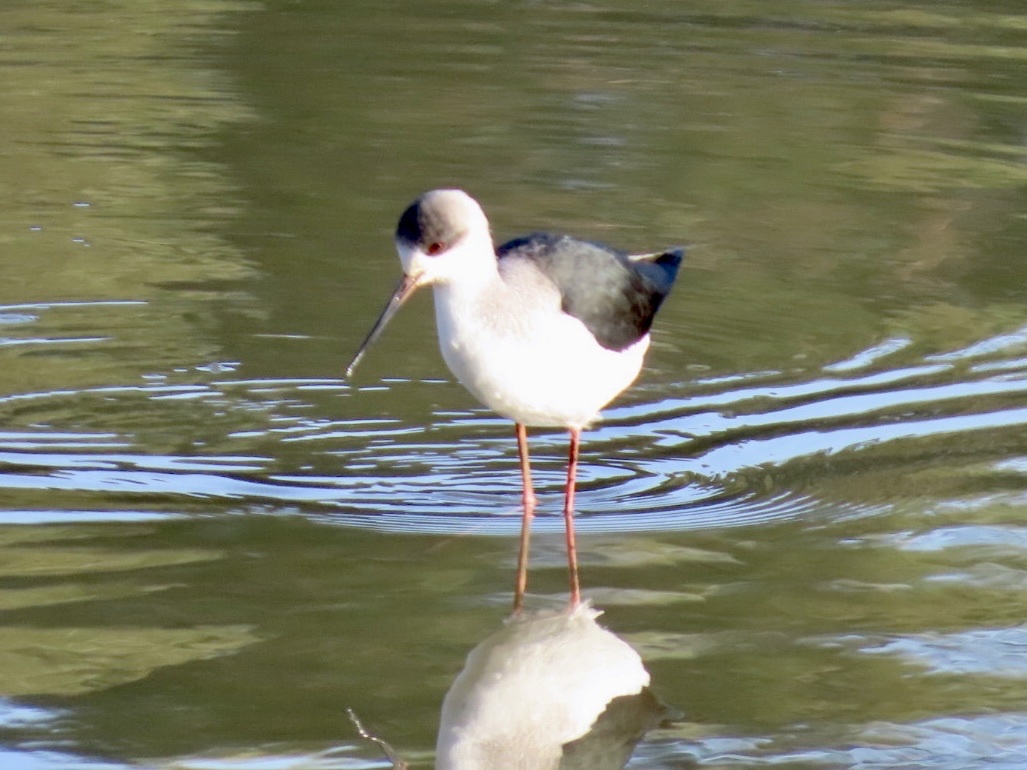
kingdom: Animalia
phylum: Chordata
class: Aves
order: Charadriiformes
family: Recurvirostridae
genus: Himantopus
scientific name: Himantopus himantopus
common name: Black-winged stilt
